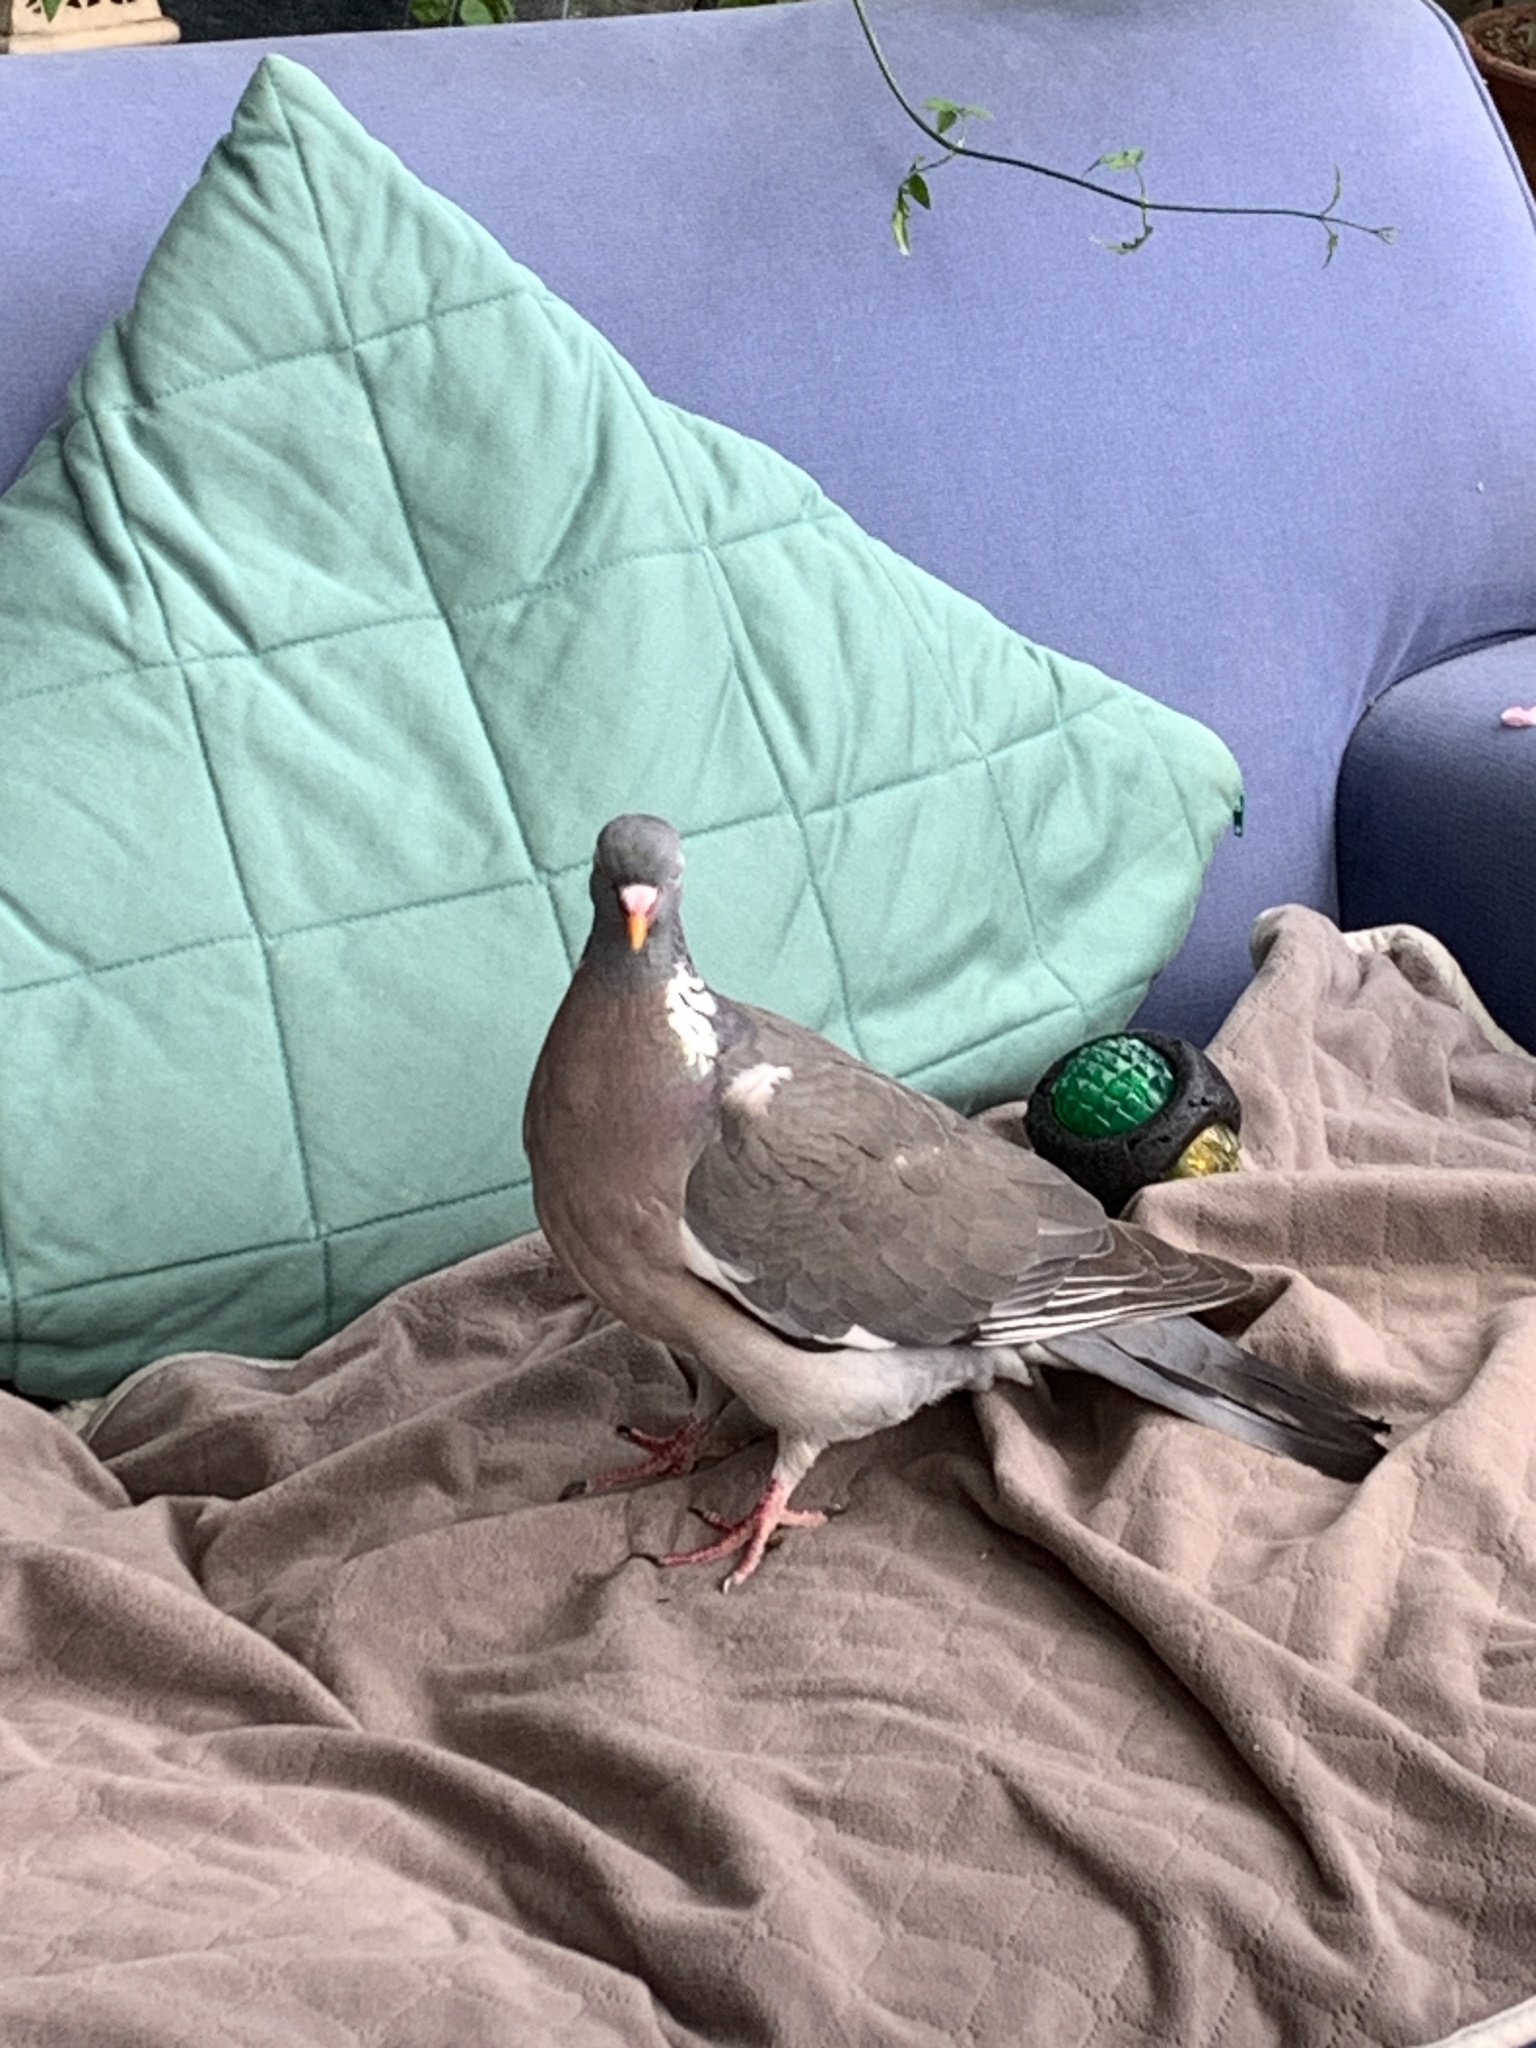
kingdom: Animalia
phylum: Chordata
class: Aves
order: Columbiformes
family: Columbidae
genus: Columba
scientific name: Columba palumbus
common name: Common wood pigeon
